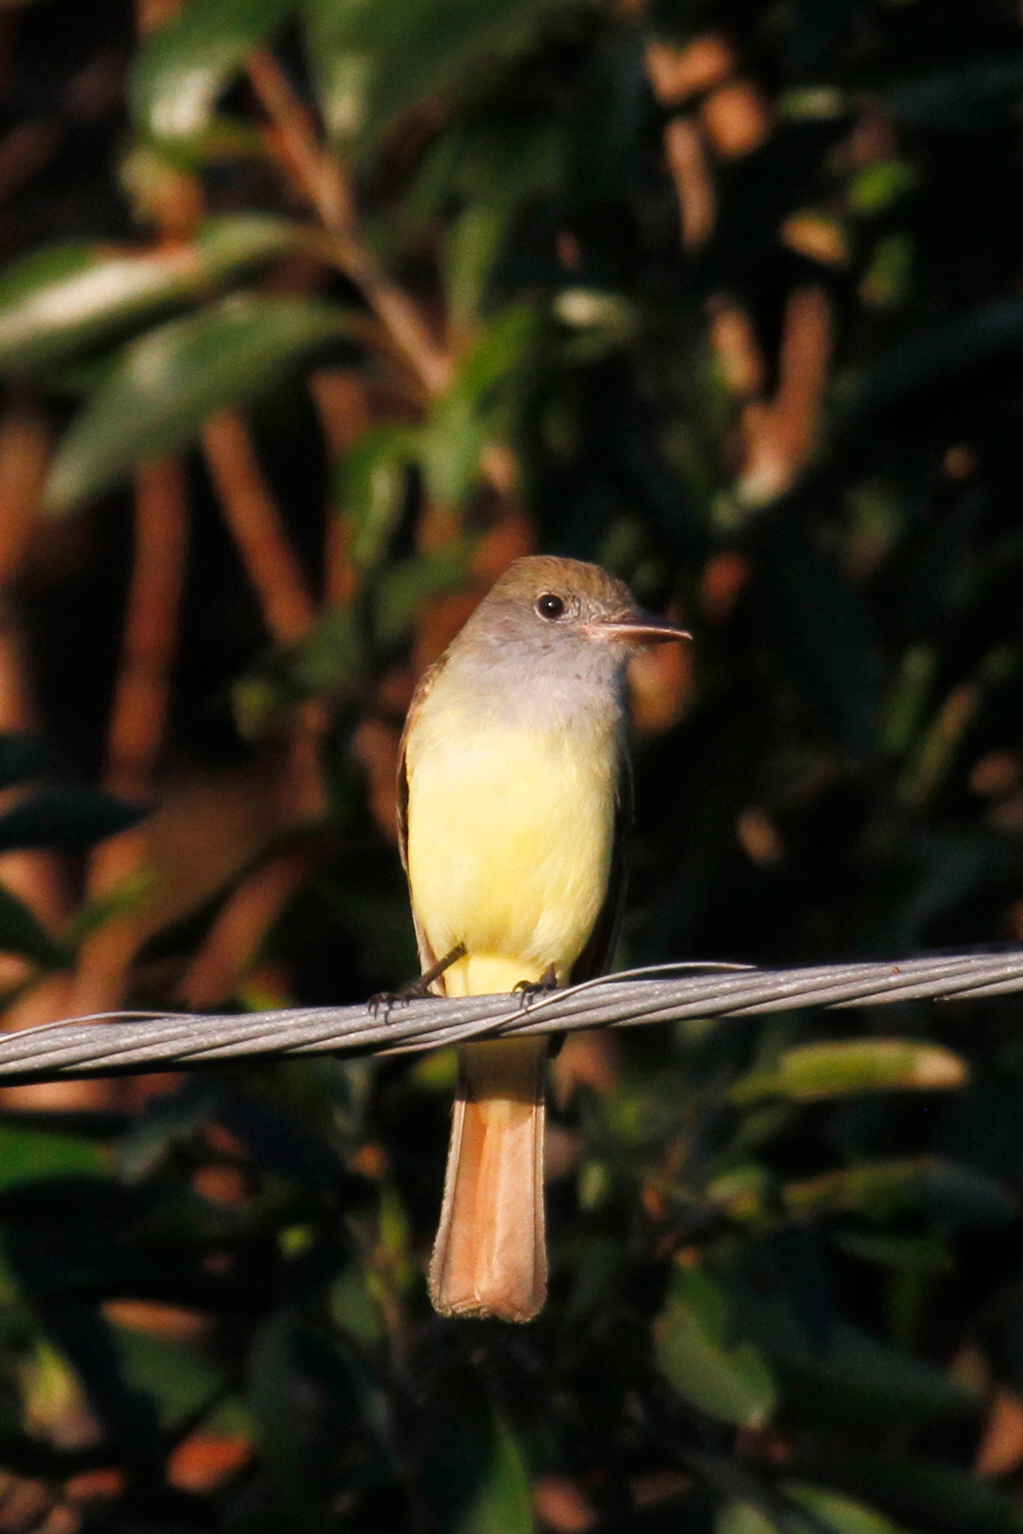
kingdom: Animalia
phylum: Chordata
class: Aves
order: Passeriformes
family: Tyrannidae
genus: Myiarchus
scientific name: Myiarchus tyrannulus
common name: Brown-crested flycatcher
